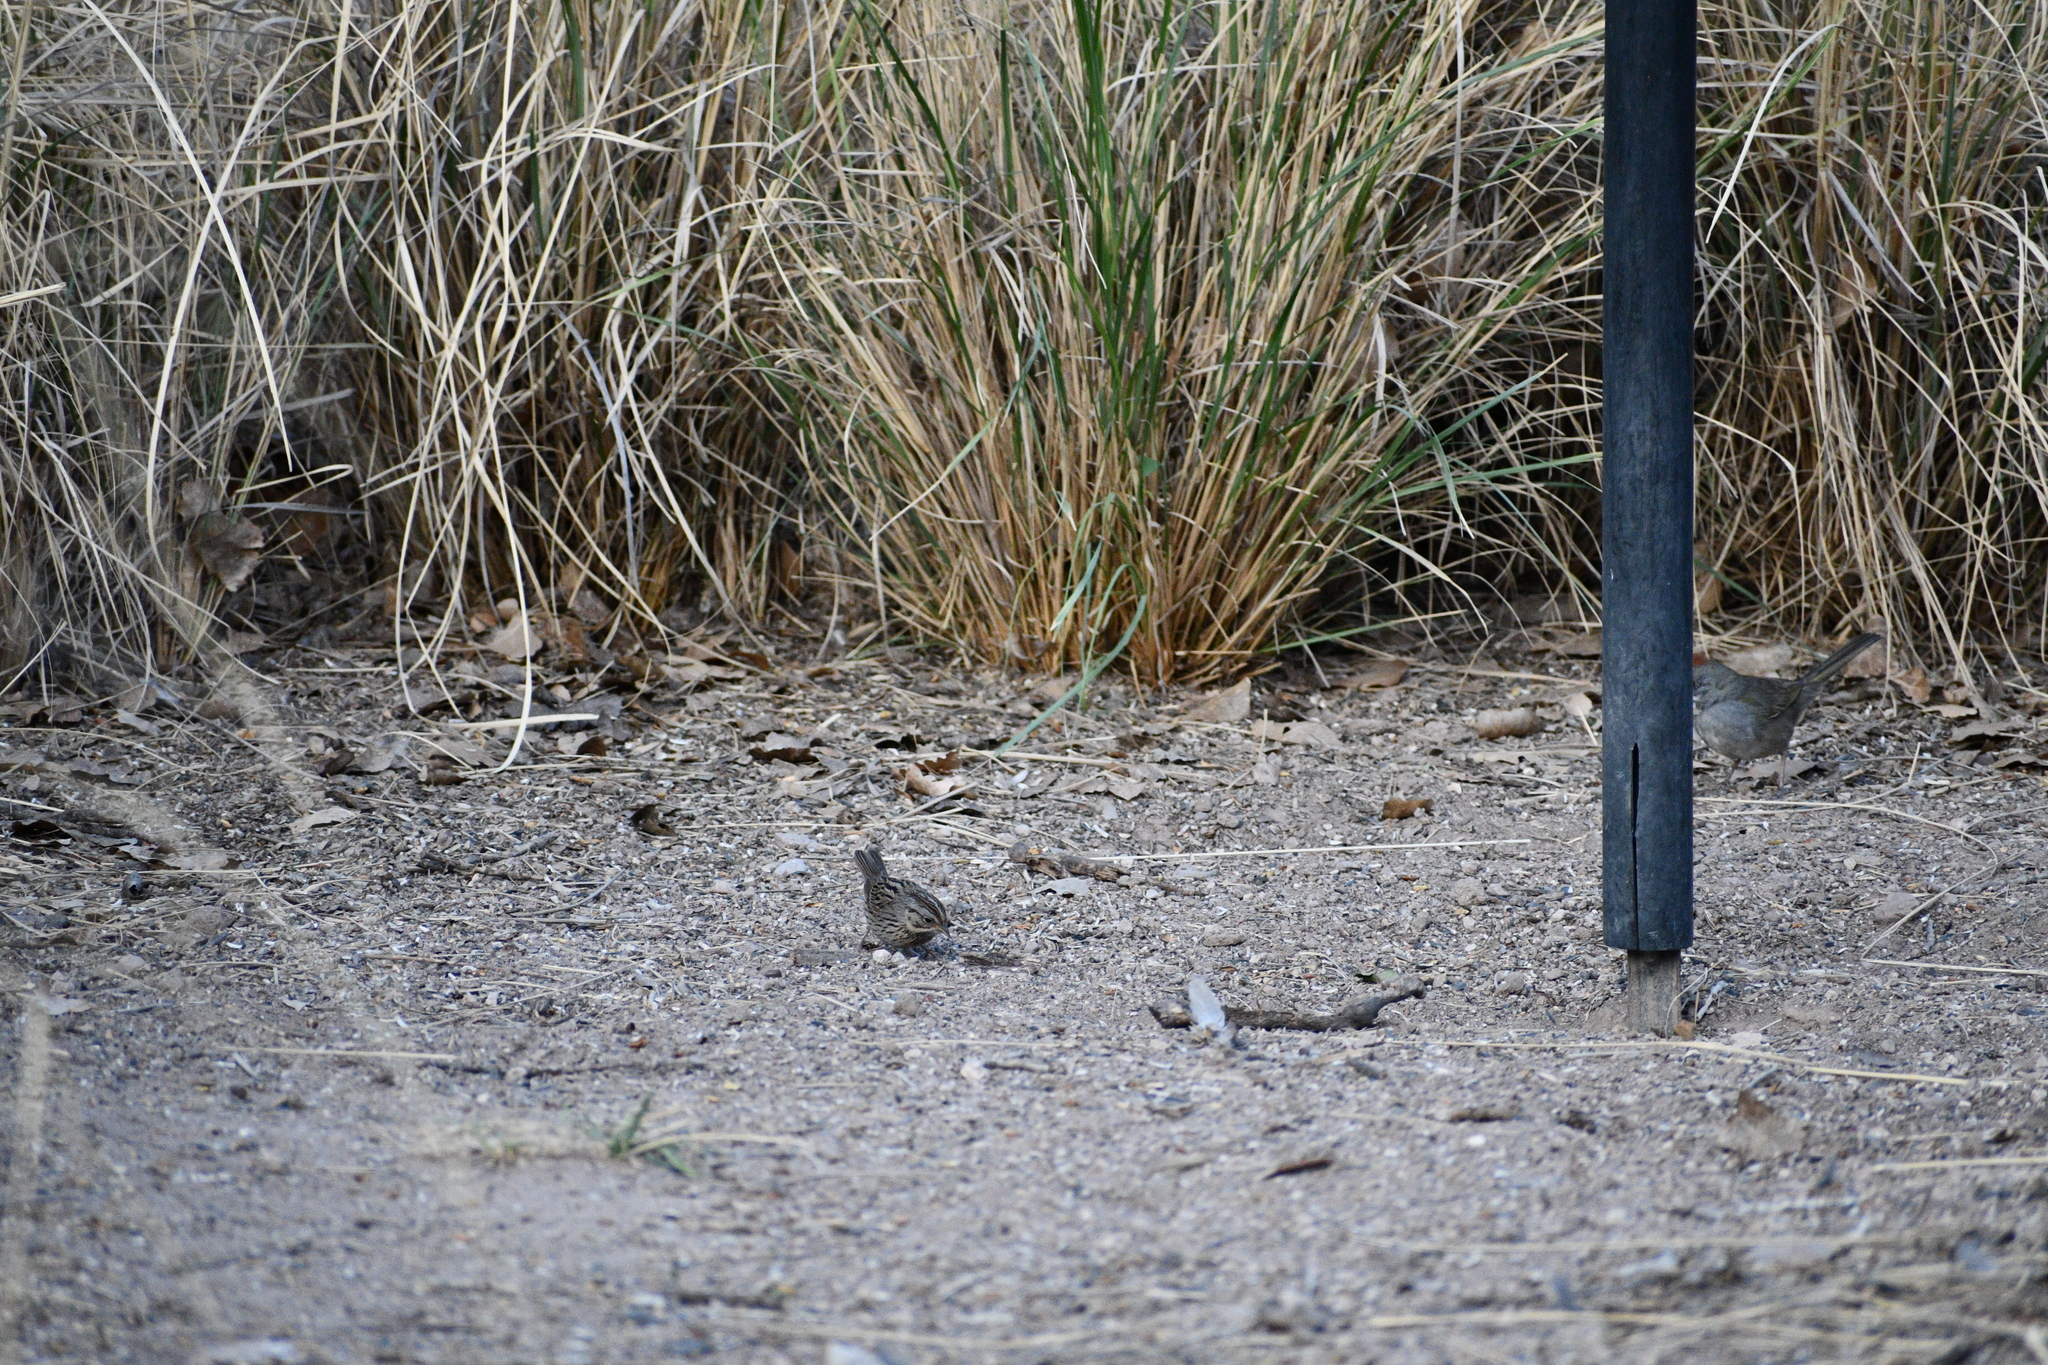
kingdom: Animalia
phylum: Chordata
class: Aves
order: Passeriformes
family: Passerellidae
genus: Melospiza
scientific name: Melospiza lincolnii
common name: Lincoln's sparrow
